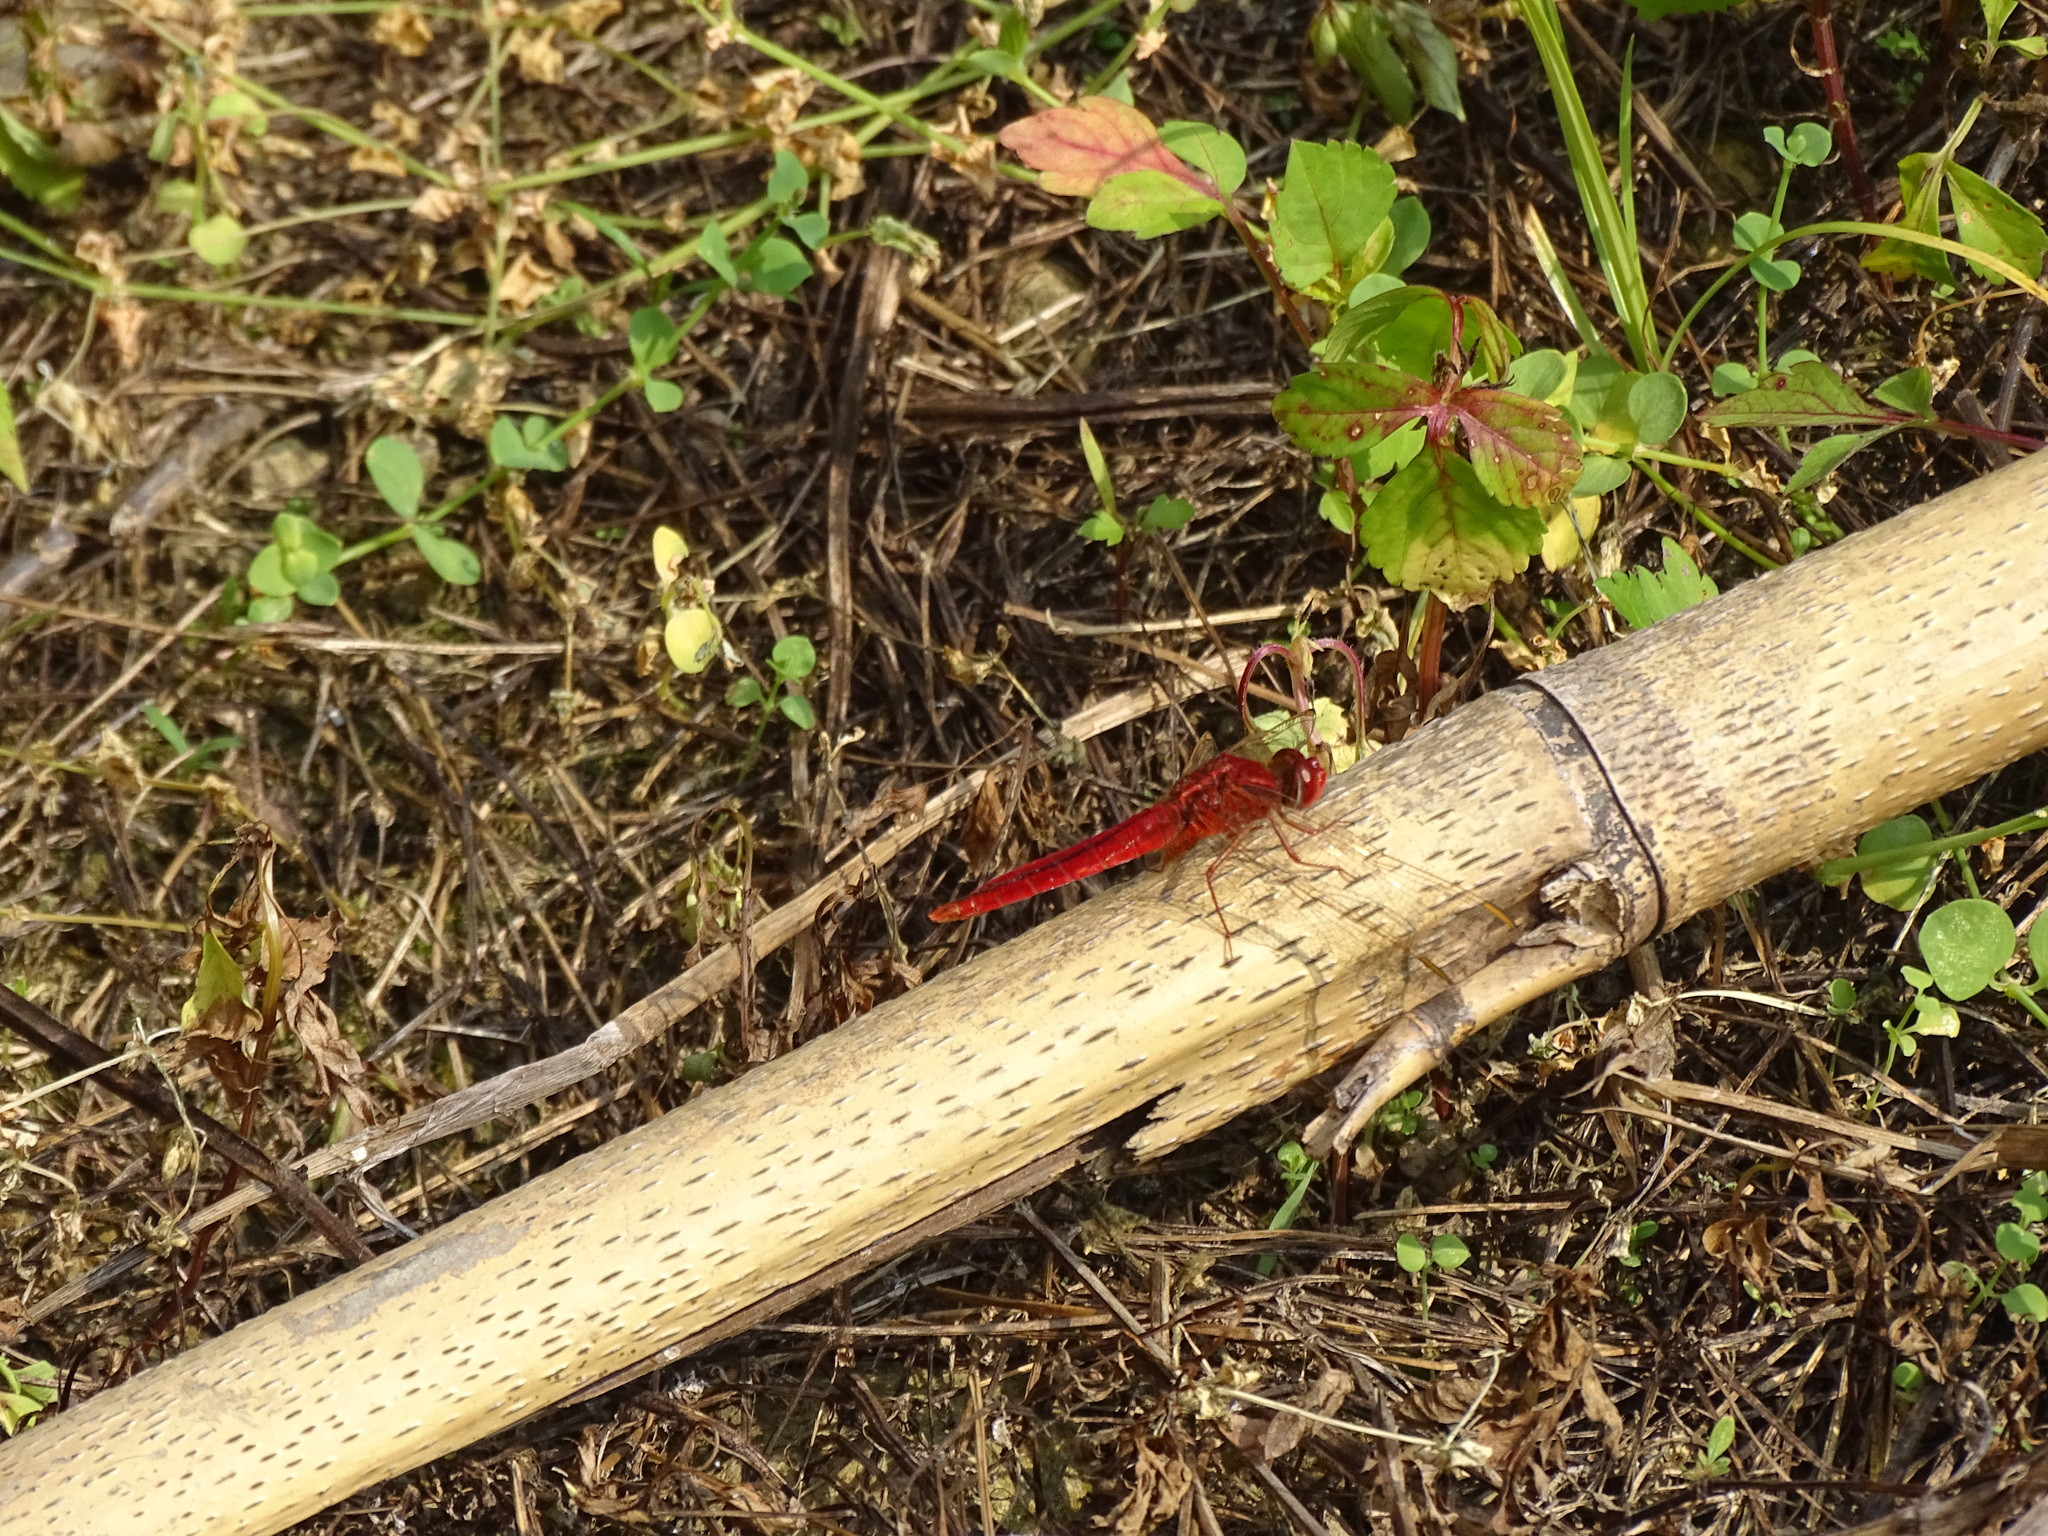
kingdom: Animalia
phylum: Arthropoda
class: Insecta
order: Odonata
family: Libellulidae
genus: Crocothemis
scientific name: Crocothemis servilia
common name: Scarlet skimmer
